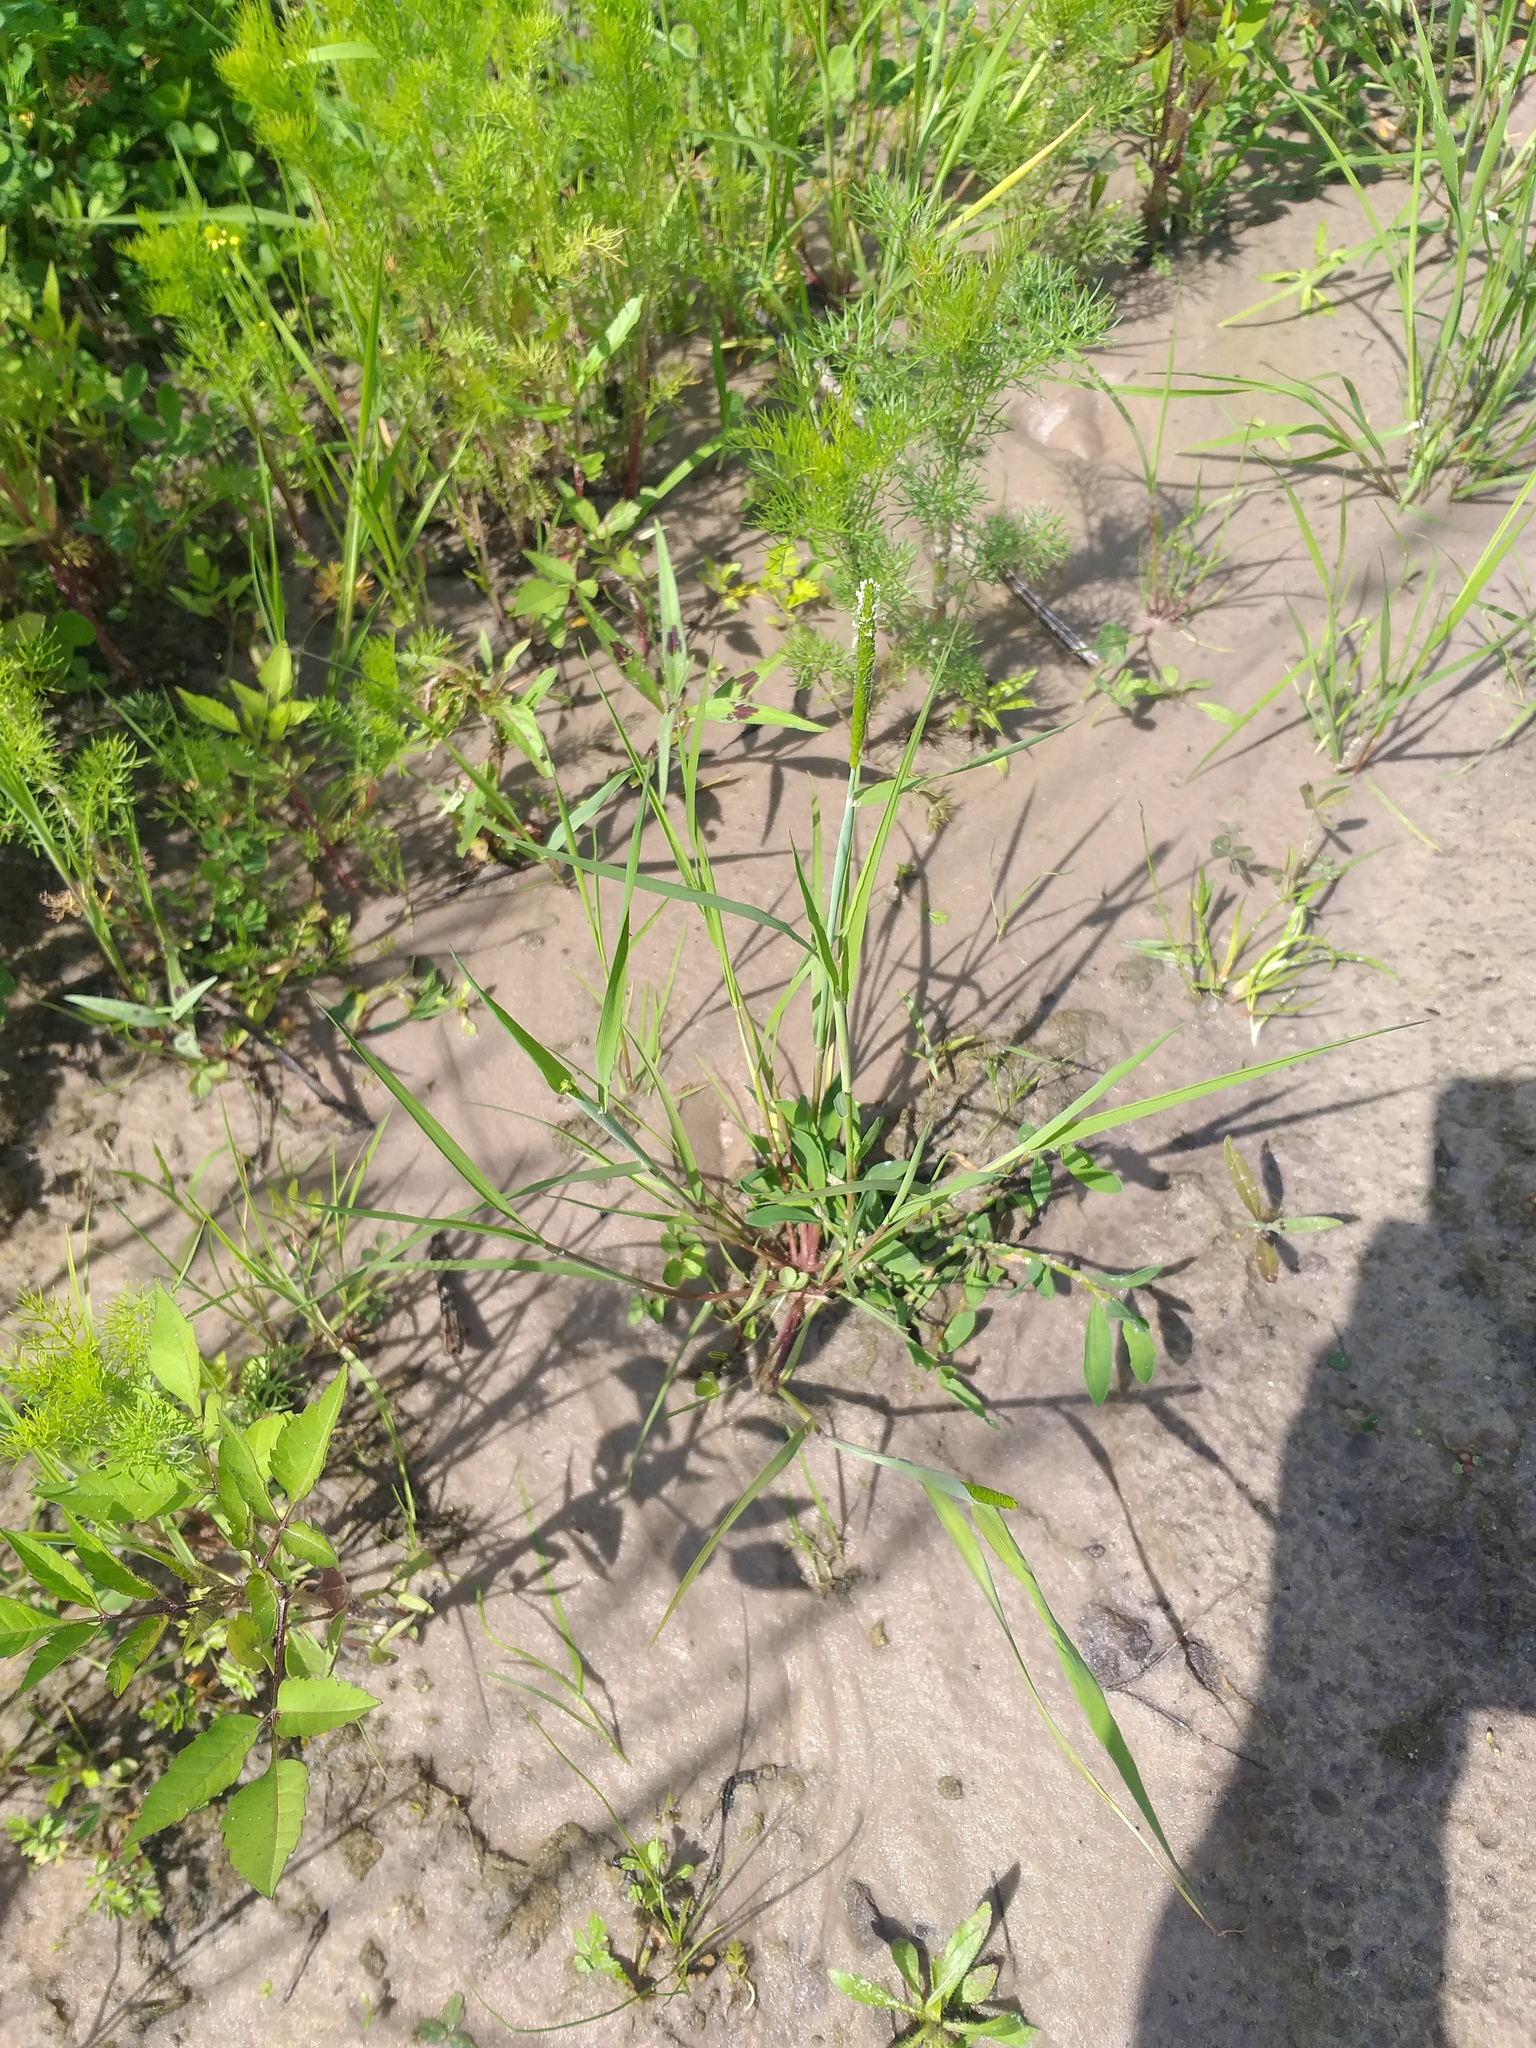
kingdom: Plantae
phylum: Tracheophyta
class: Liliopsida
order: Poales
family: Poaceae
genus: Alopecurus
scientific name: Alopecurus aequalis
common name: Orange foxtail
